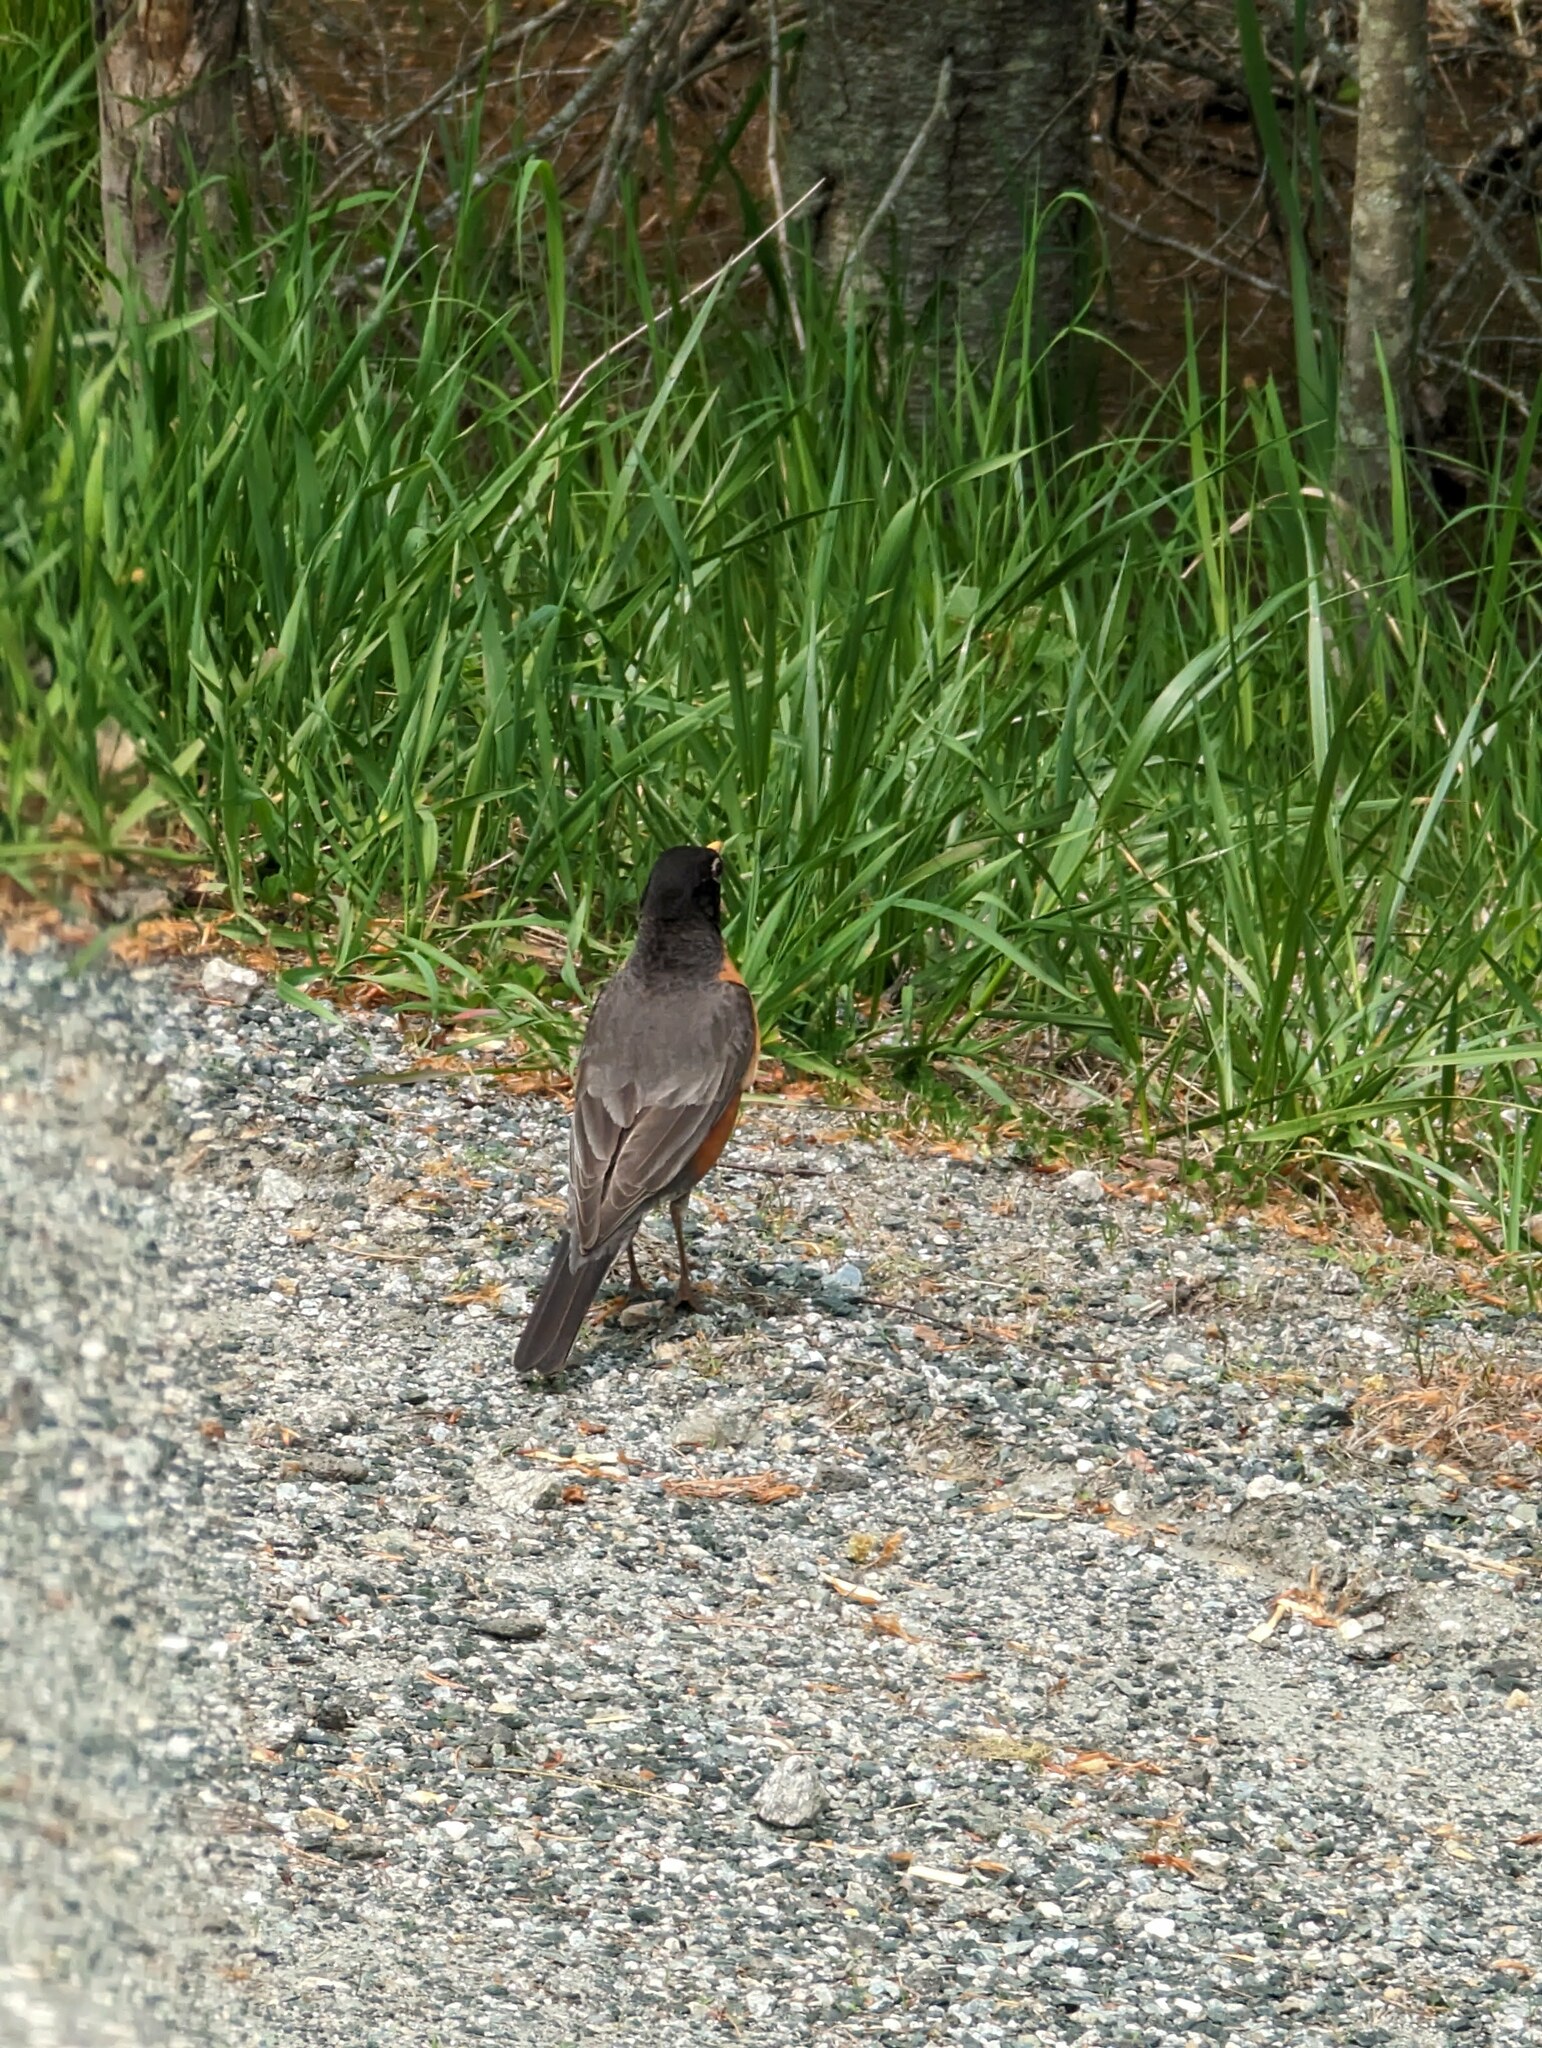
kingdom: Animalia
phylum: Chordata
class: Aves
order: Passeriformes
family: Turdidae
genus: Turdus
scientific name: Turdus migratorius
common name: American robin
